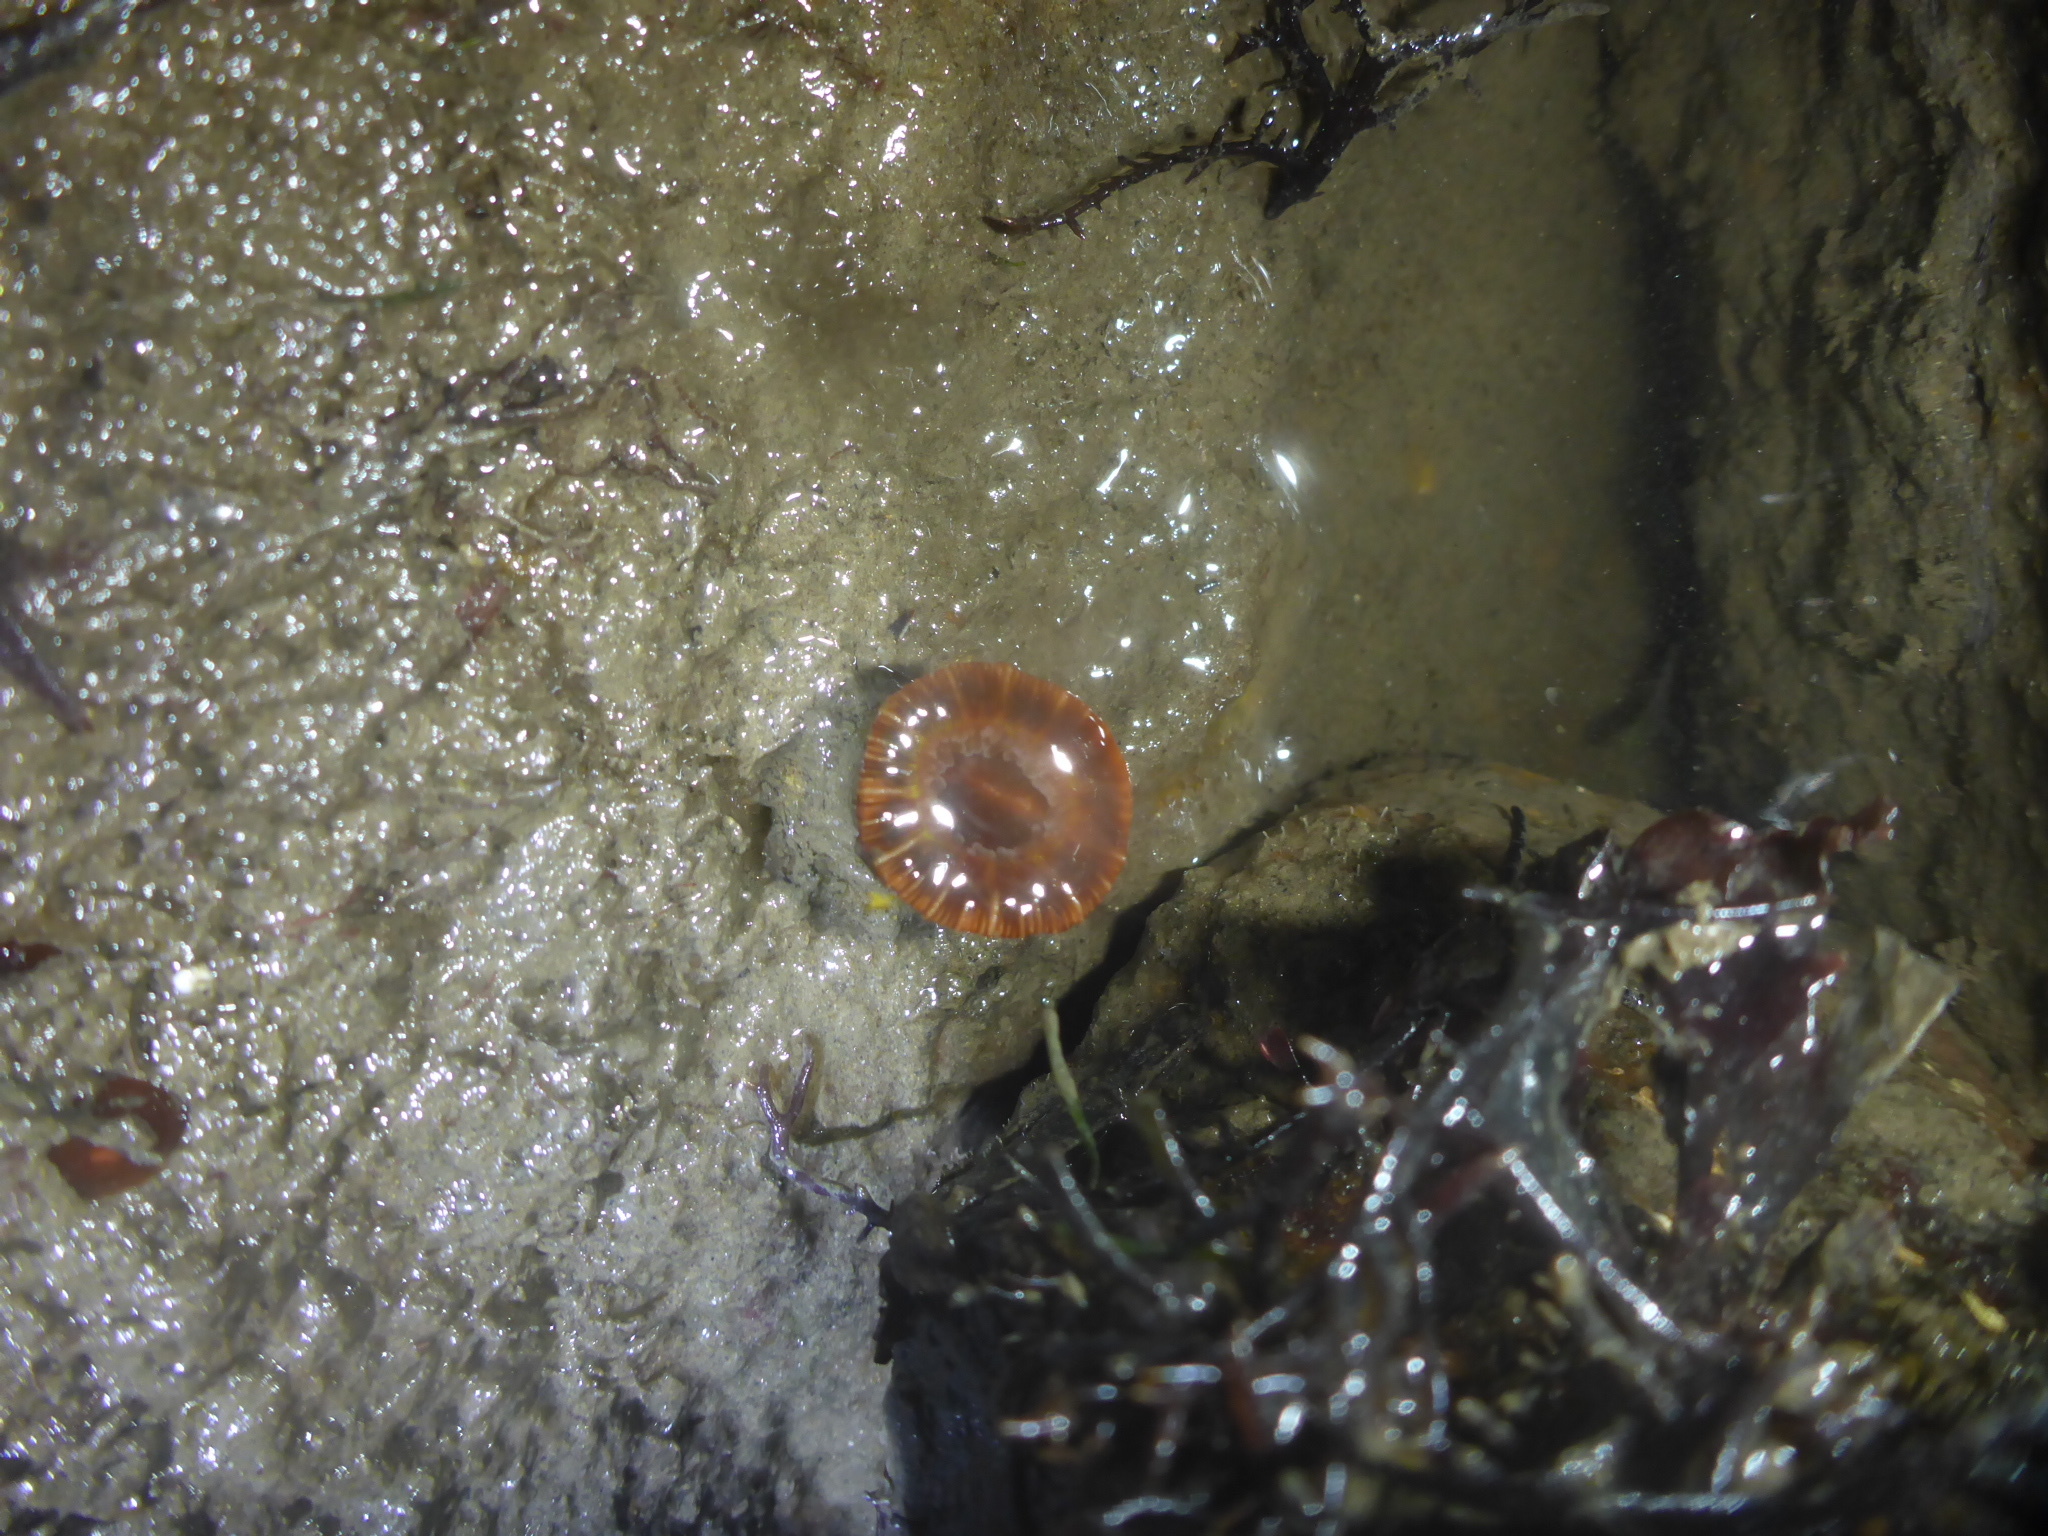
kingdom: Animalia
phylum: Cnidaria
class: Anthozoa
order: Scleractinia
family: Caryophylliidae
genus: Paracyathus
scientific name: Paracyathus stearnsii
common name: Brown stony coral
